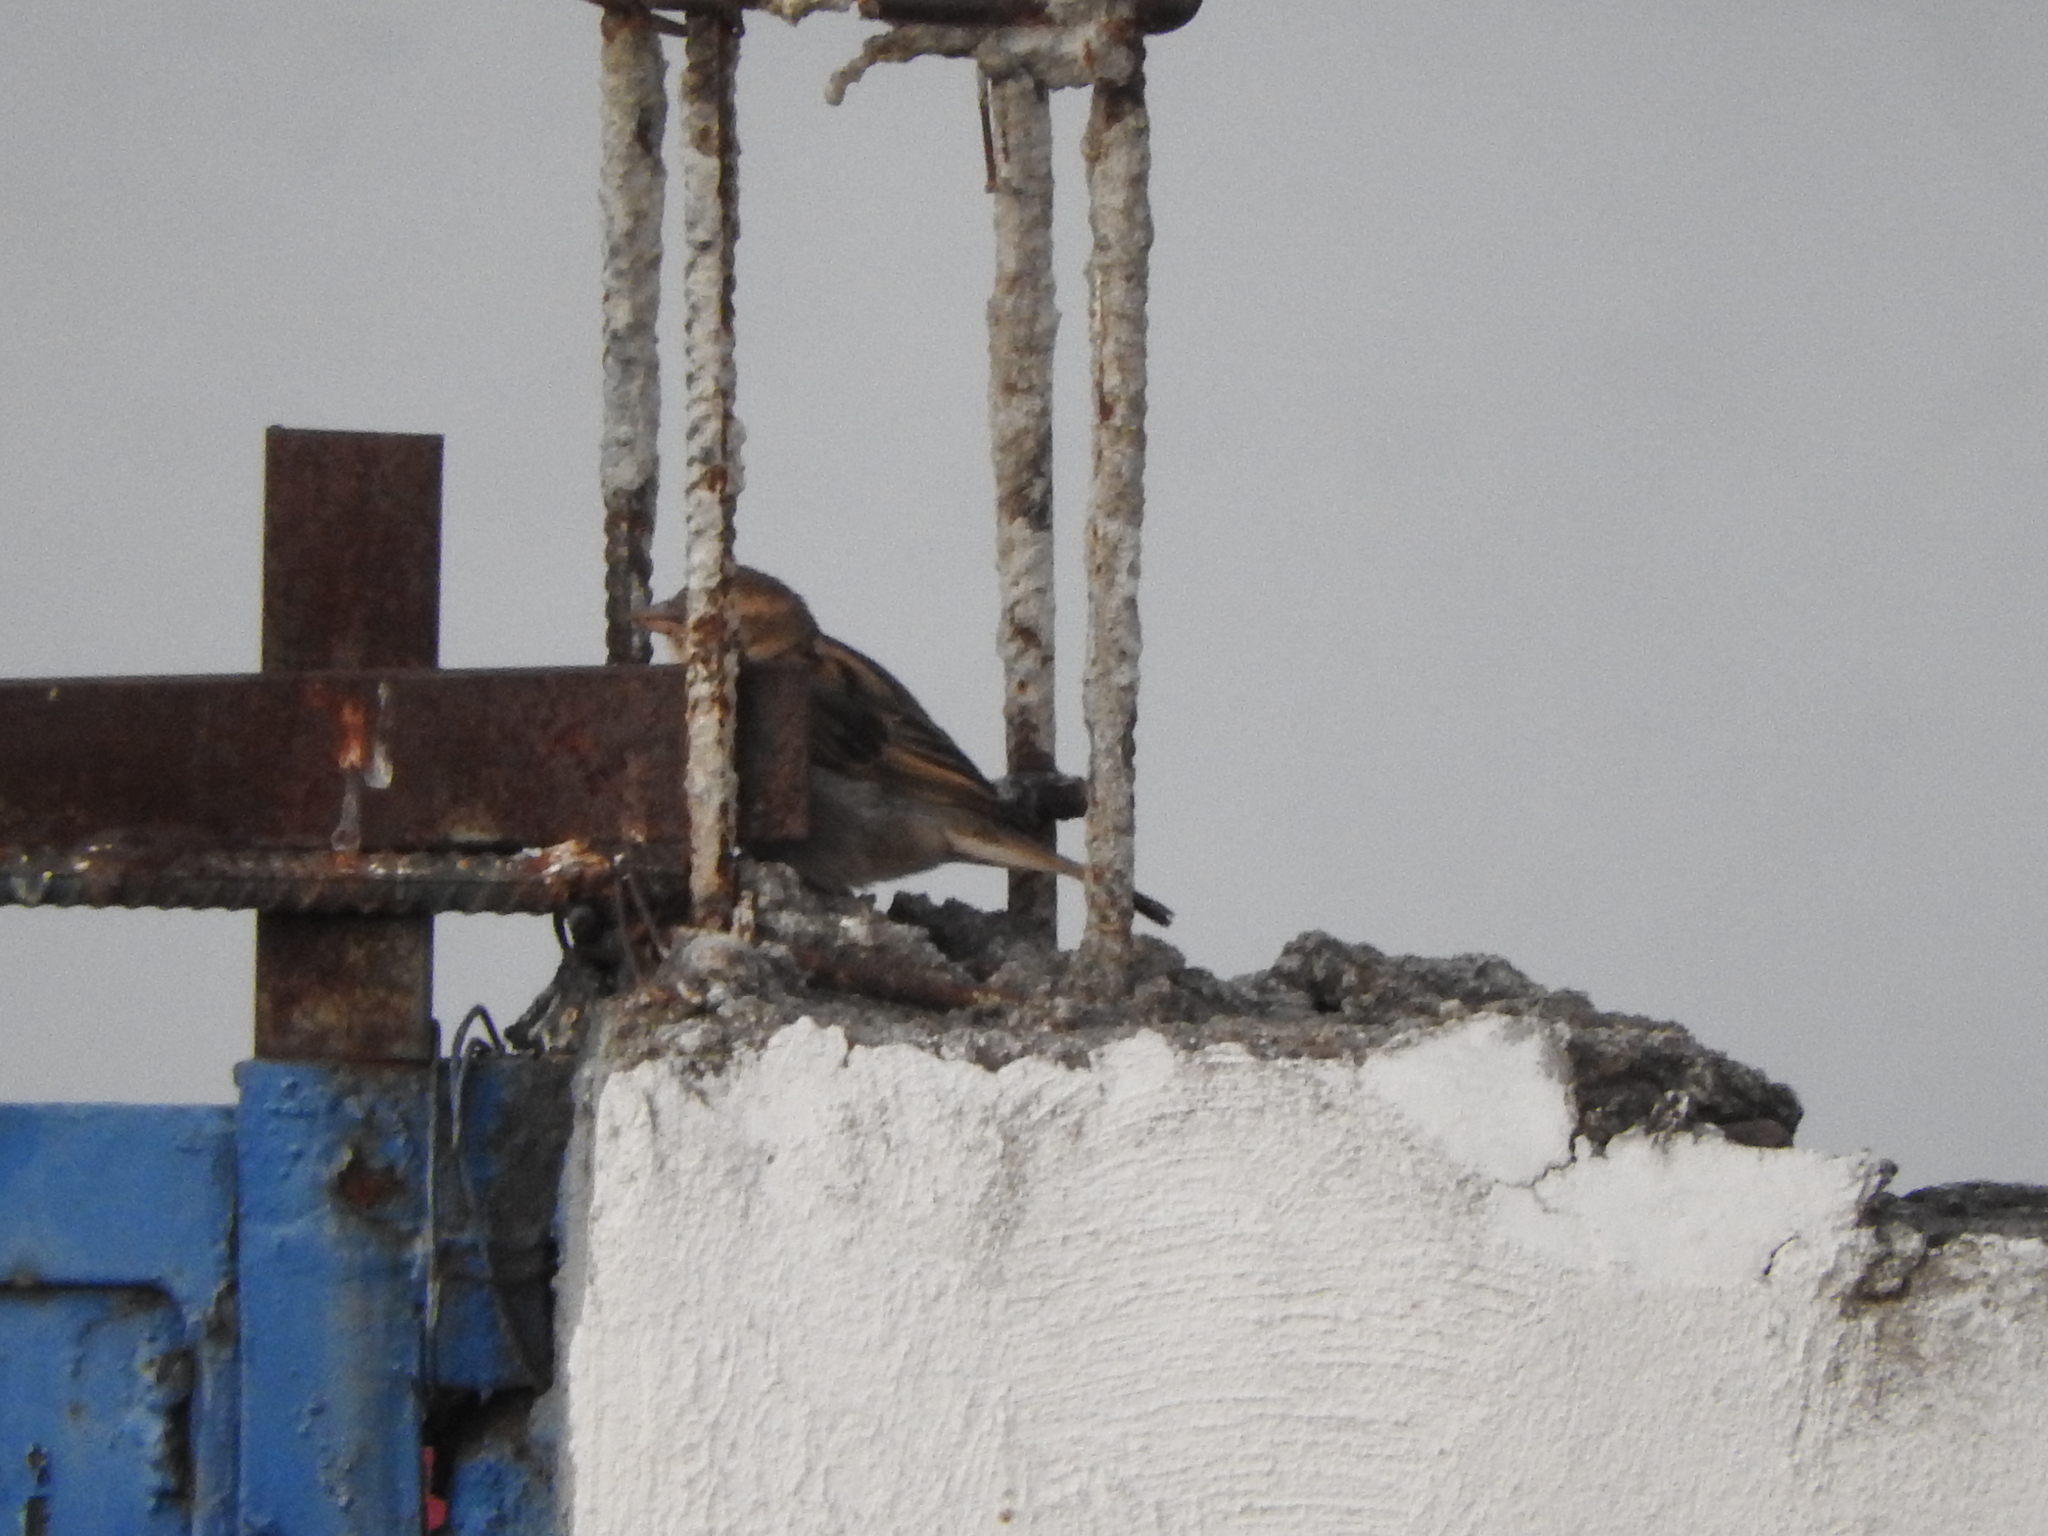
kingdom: Animalia
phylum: Chordata
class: Aves
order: Passeriformes
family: Passeridae
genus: Passer
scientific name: Passer domesticus
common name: House sparrow
